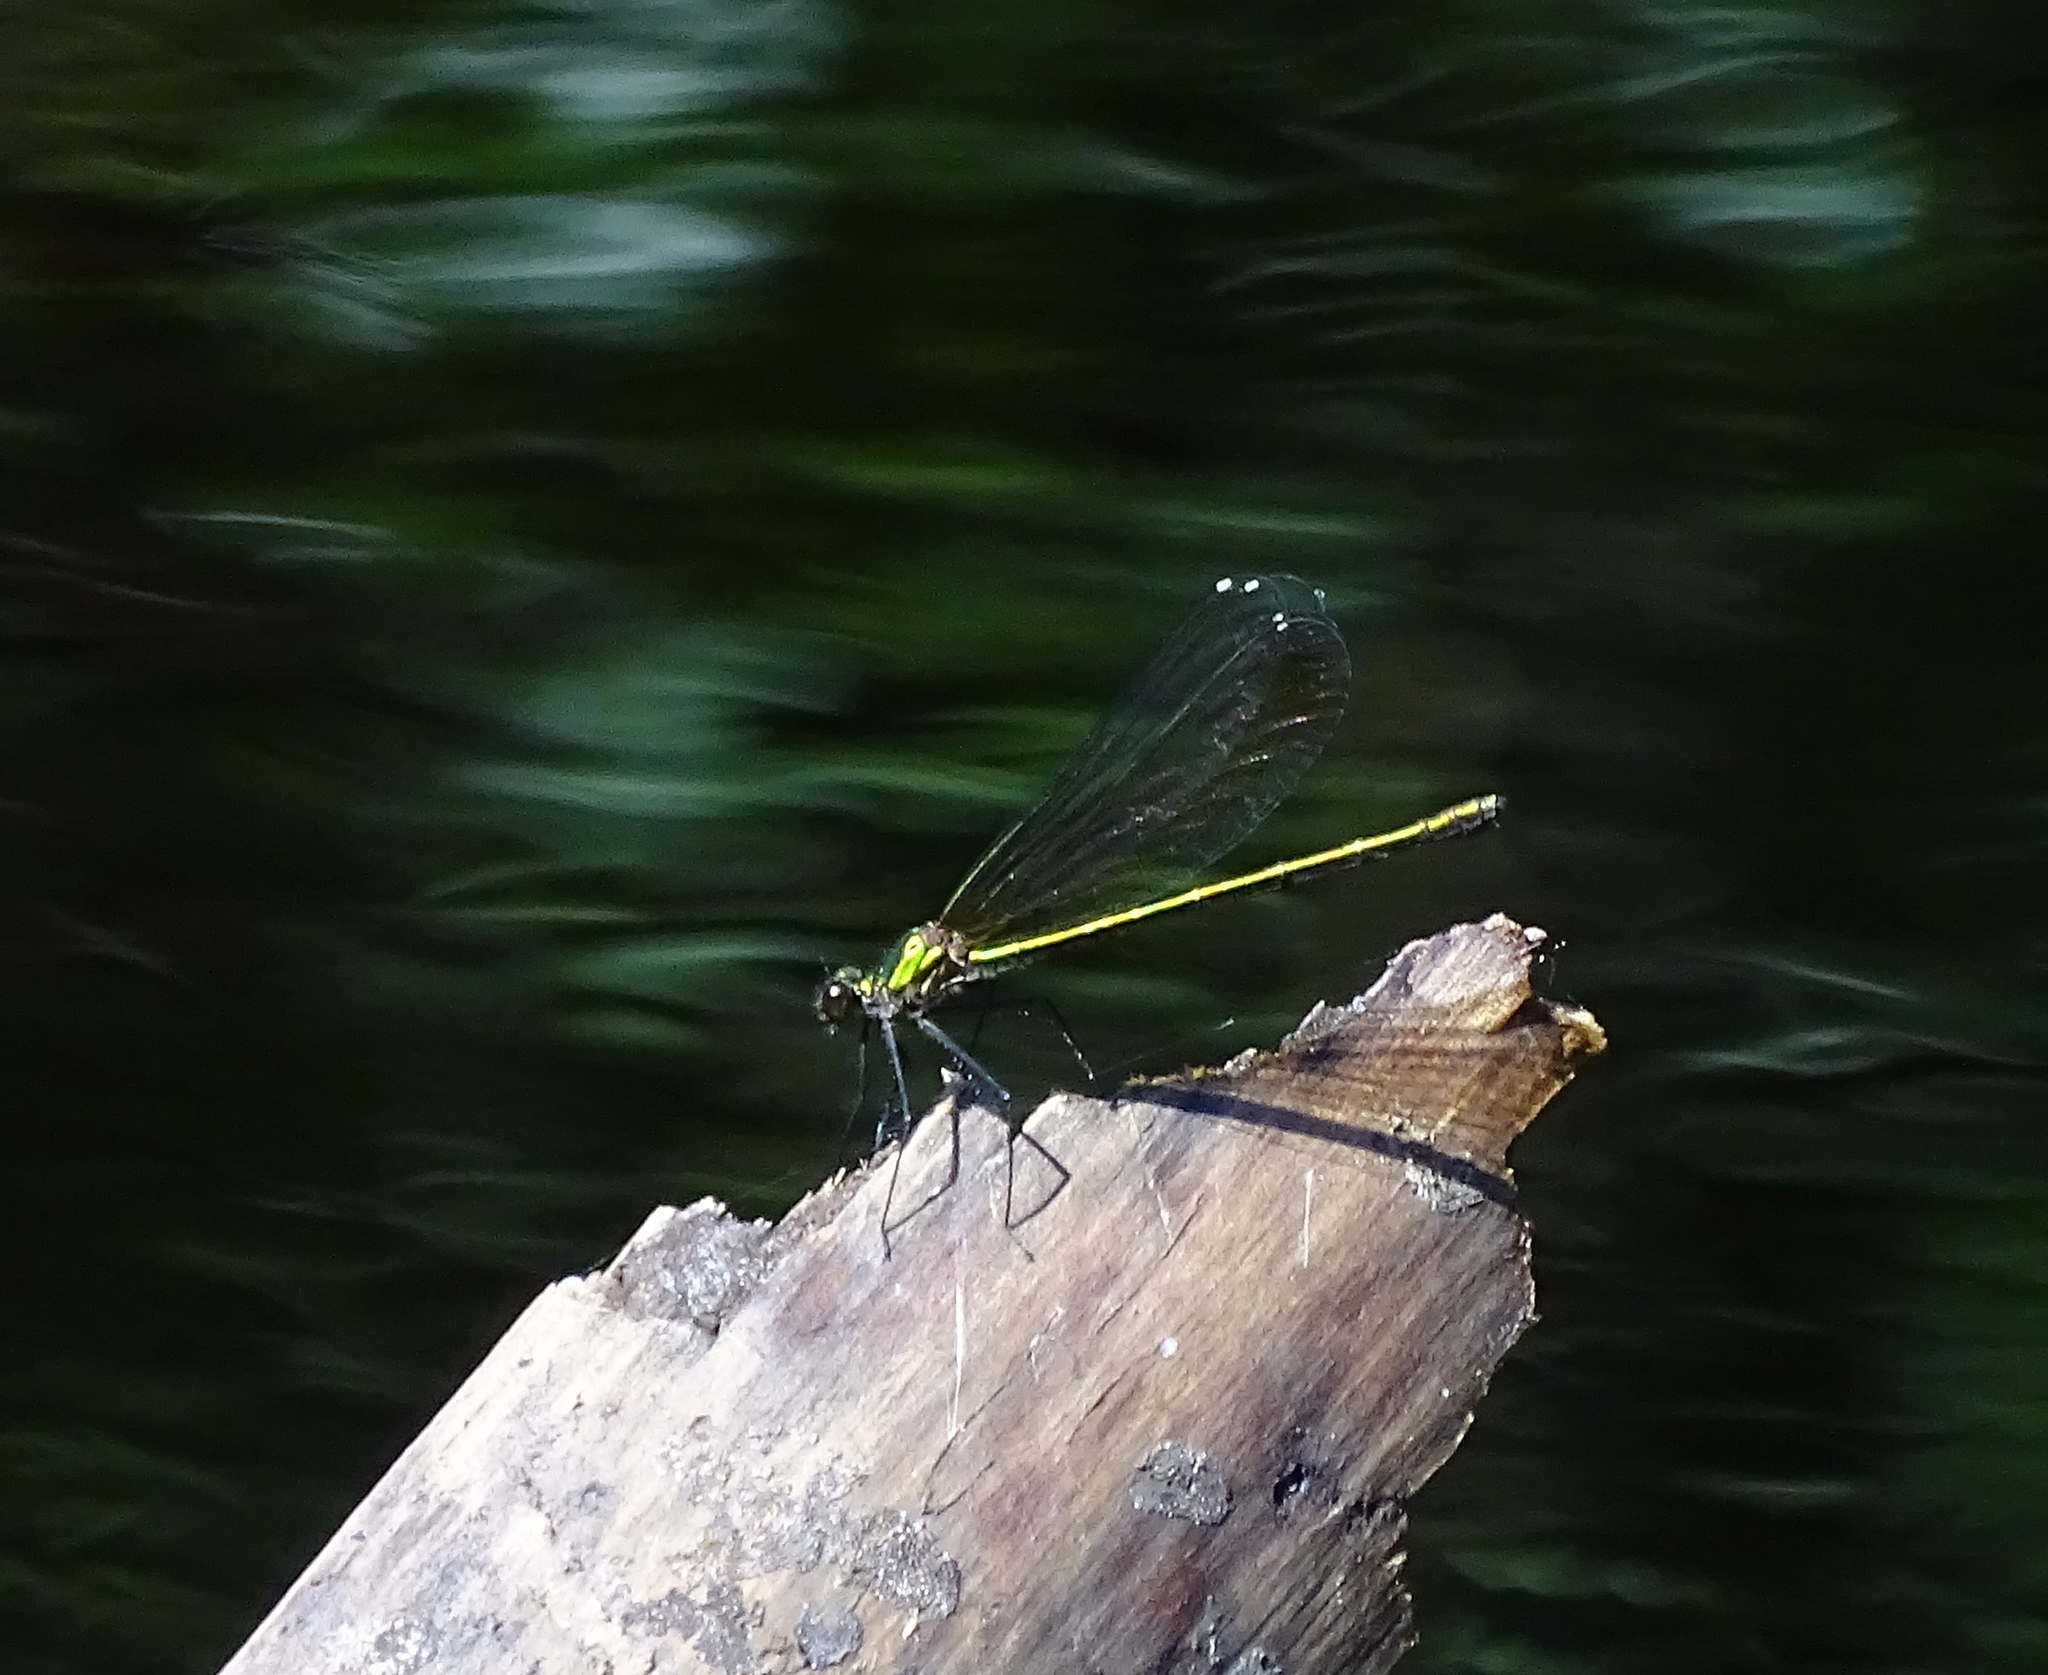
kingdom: Animalia
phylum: Arthropoda
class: Insecta
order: Odonata
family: Calopterygidae
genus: Calopteryx
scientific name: Calopteryx dimidiata
